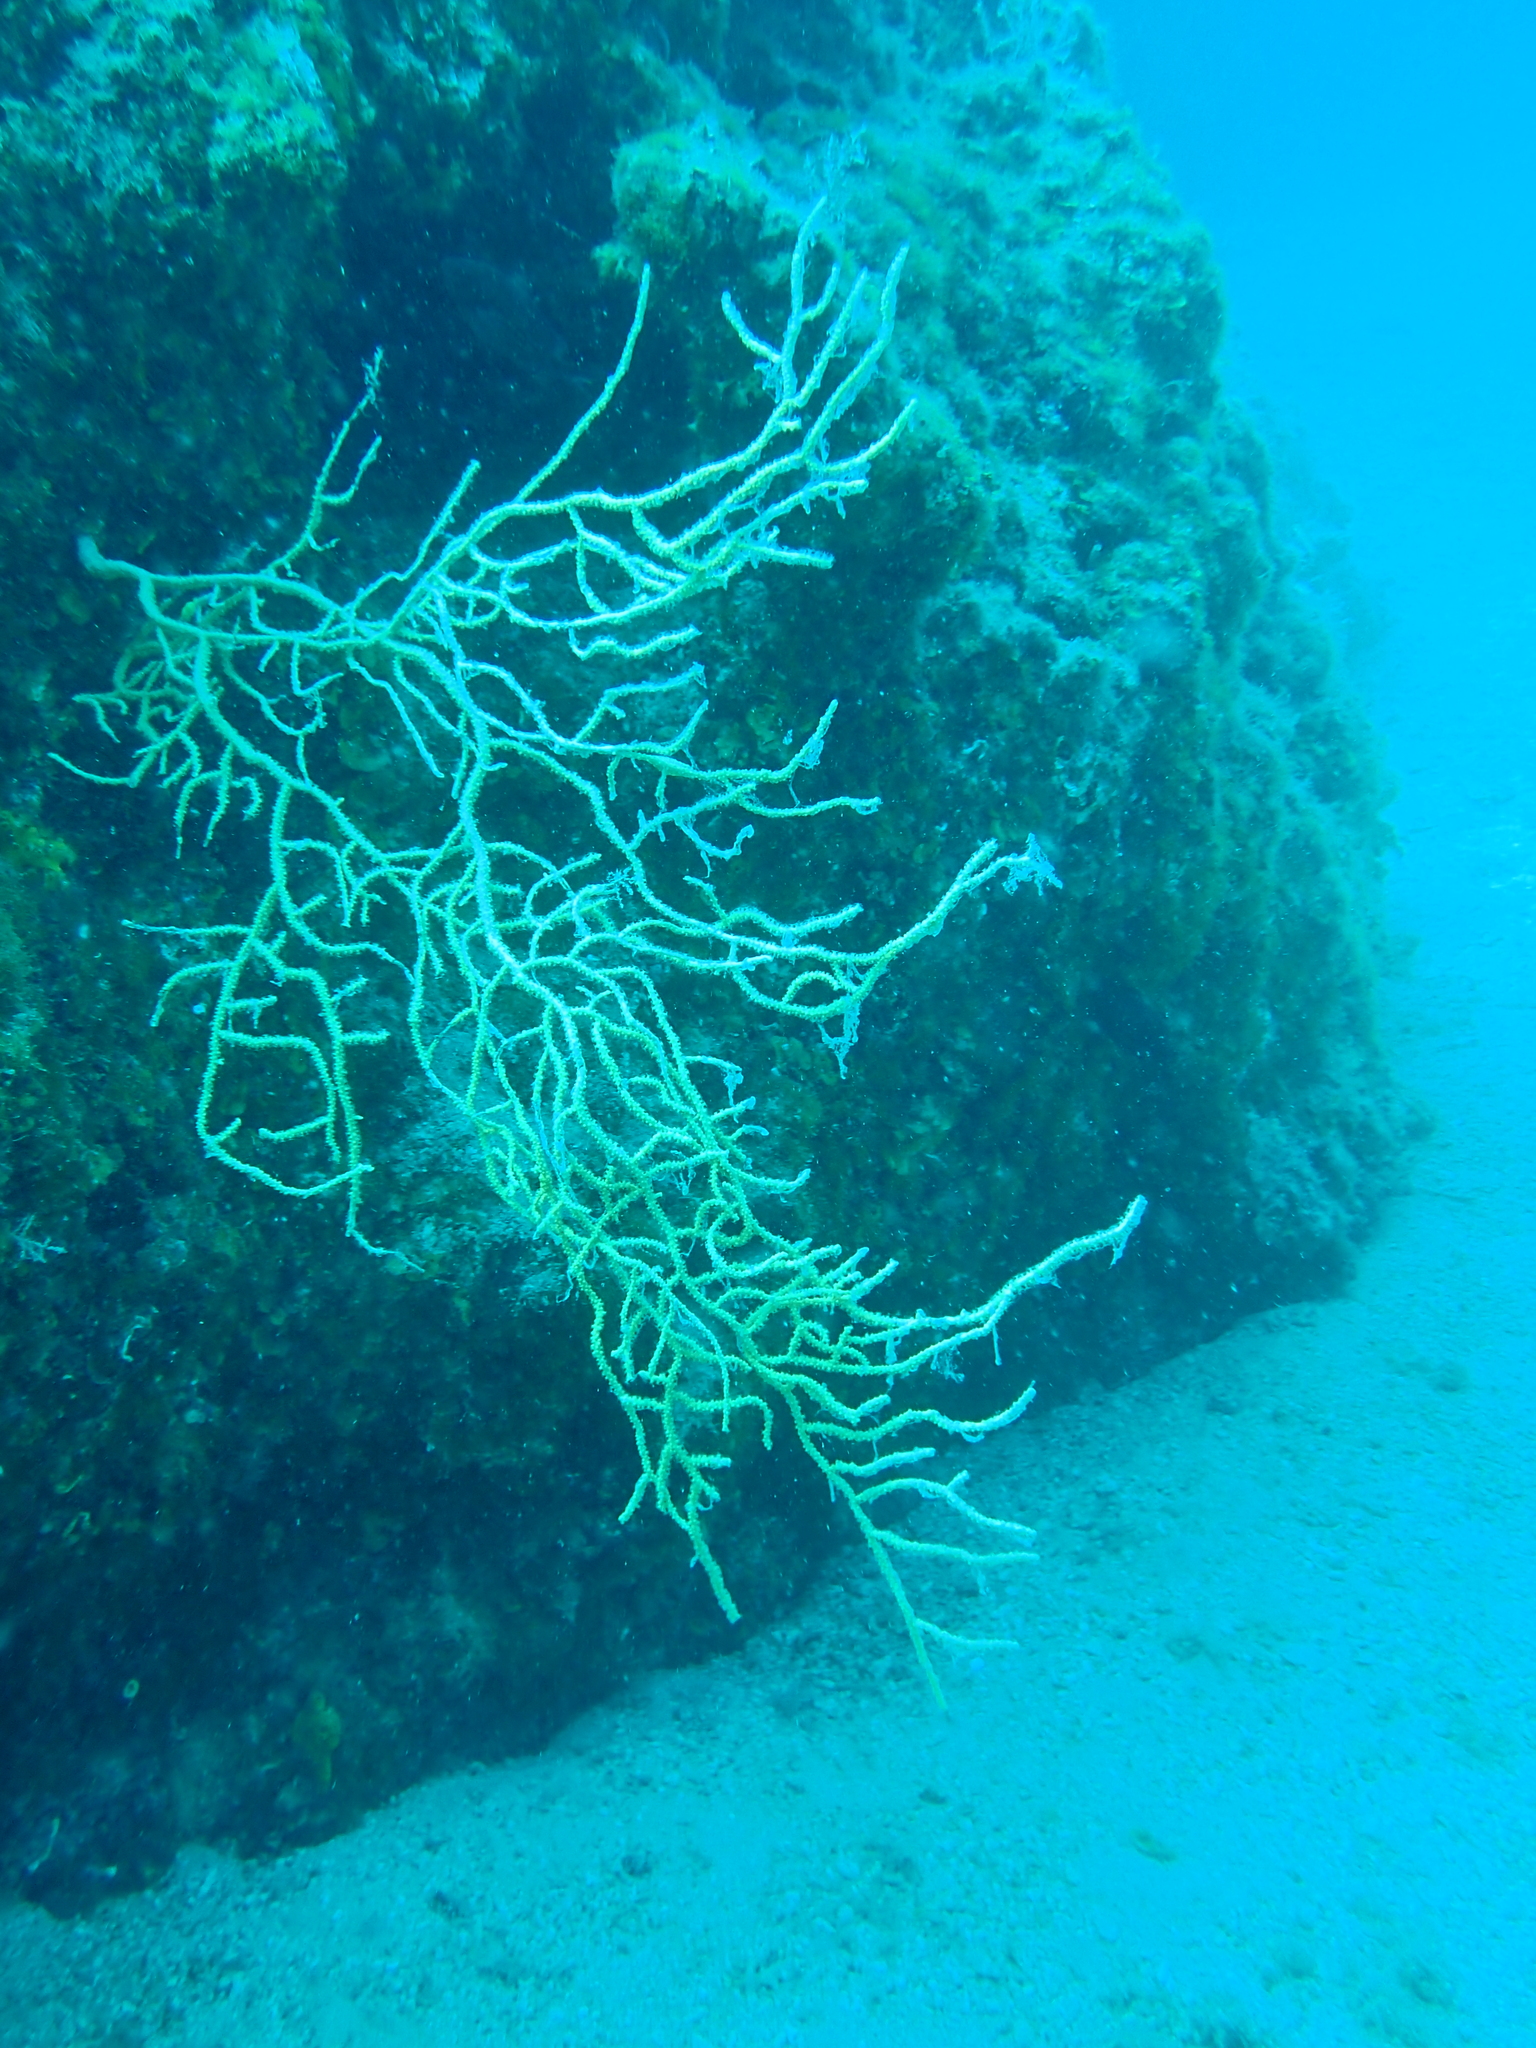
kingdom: Animalia
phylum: Cnidaria
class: Anthozoa
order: Malacalcyonacea
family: Eunicellidae
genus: Eunicella
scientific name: Eunicella cavolini
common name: Yellow gorgonian
